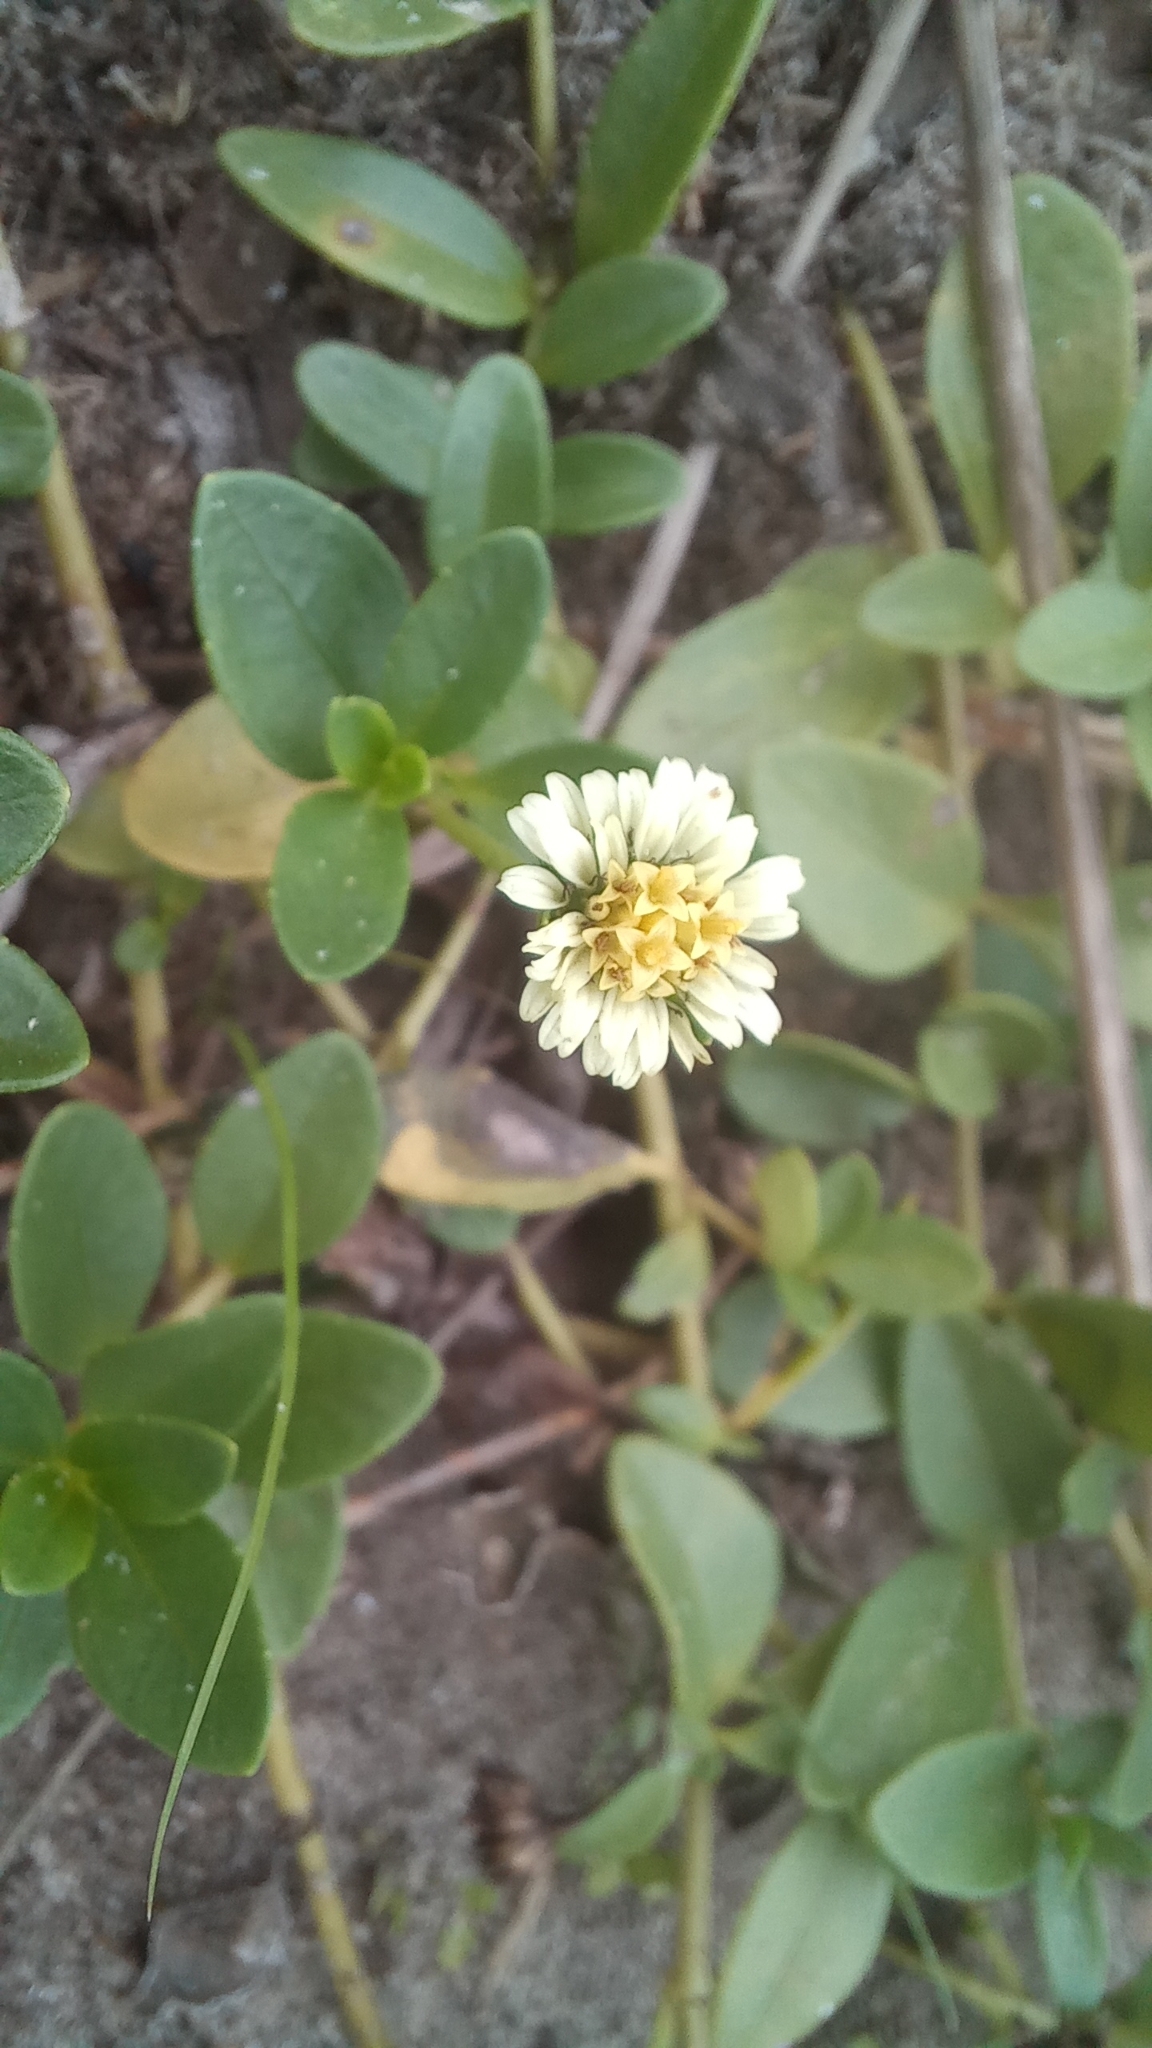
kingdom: Plantae
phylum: Tracheophyta
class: Magnoliopsida
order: Asterales
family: Asteraceae
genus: Eclipta
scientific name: Eclipta elliptica
